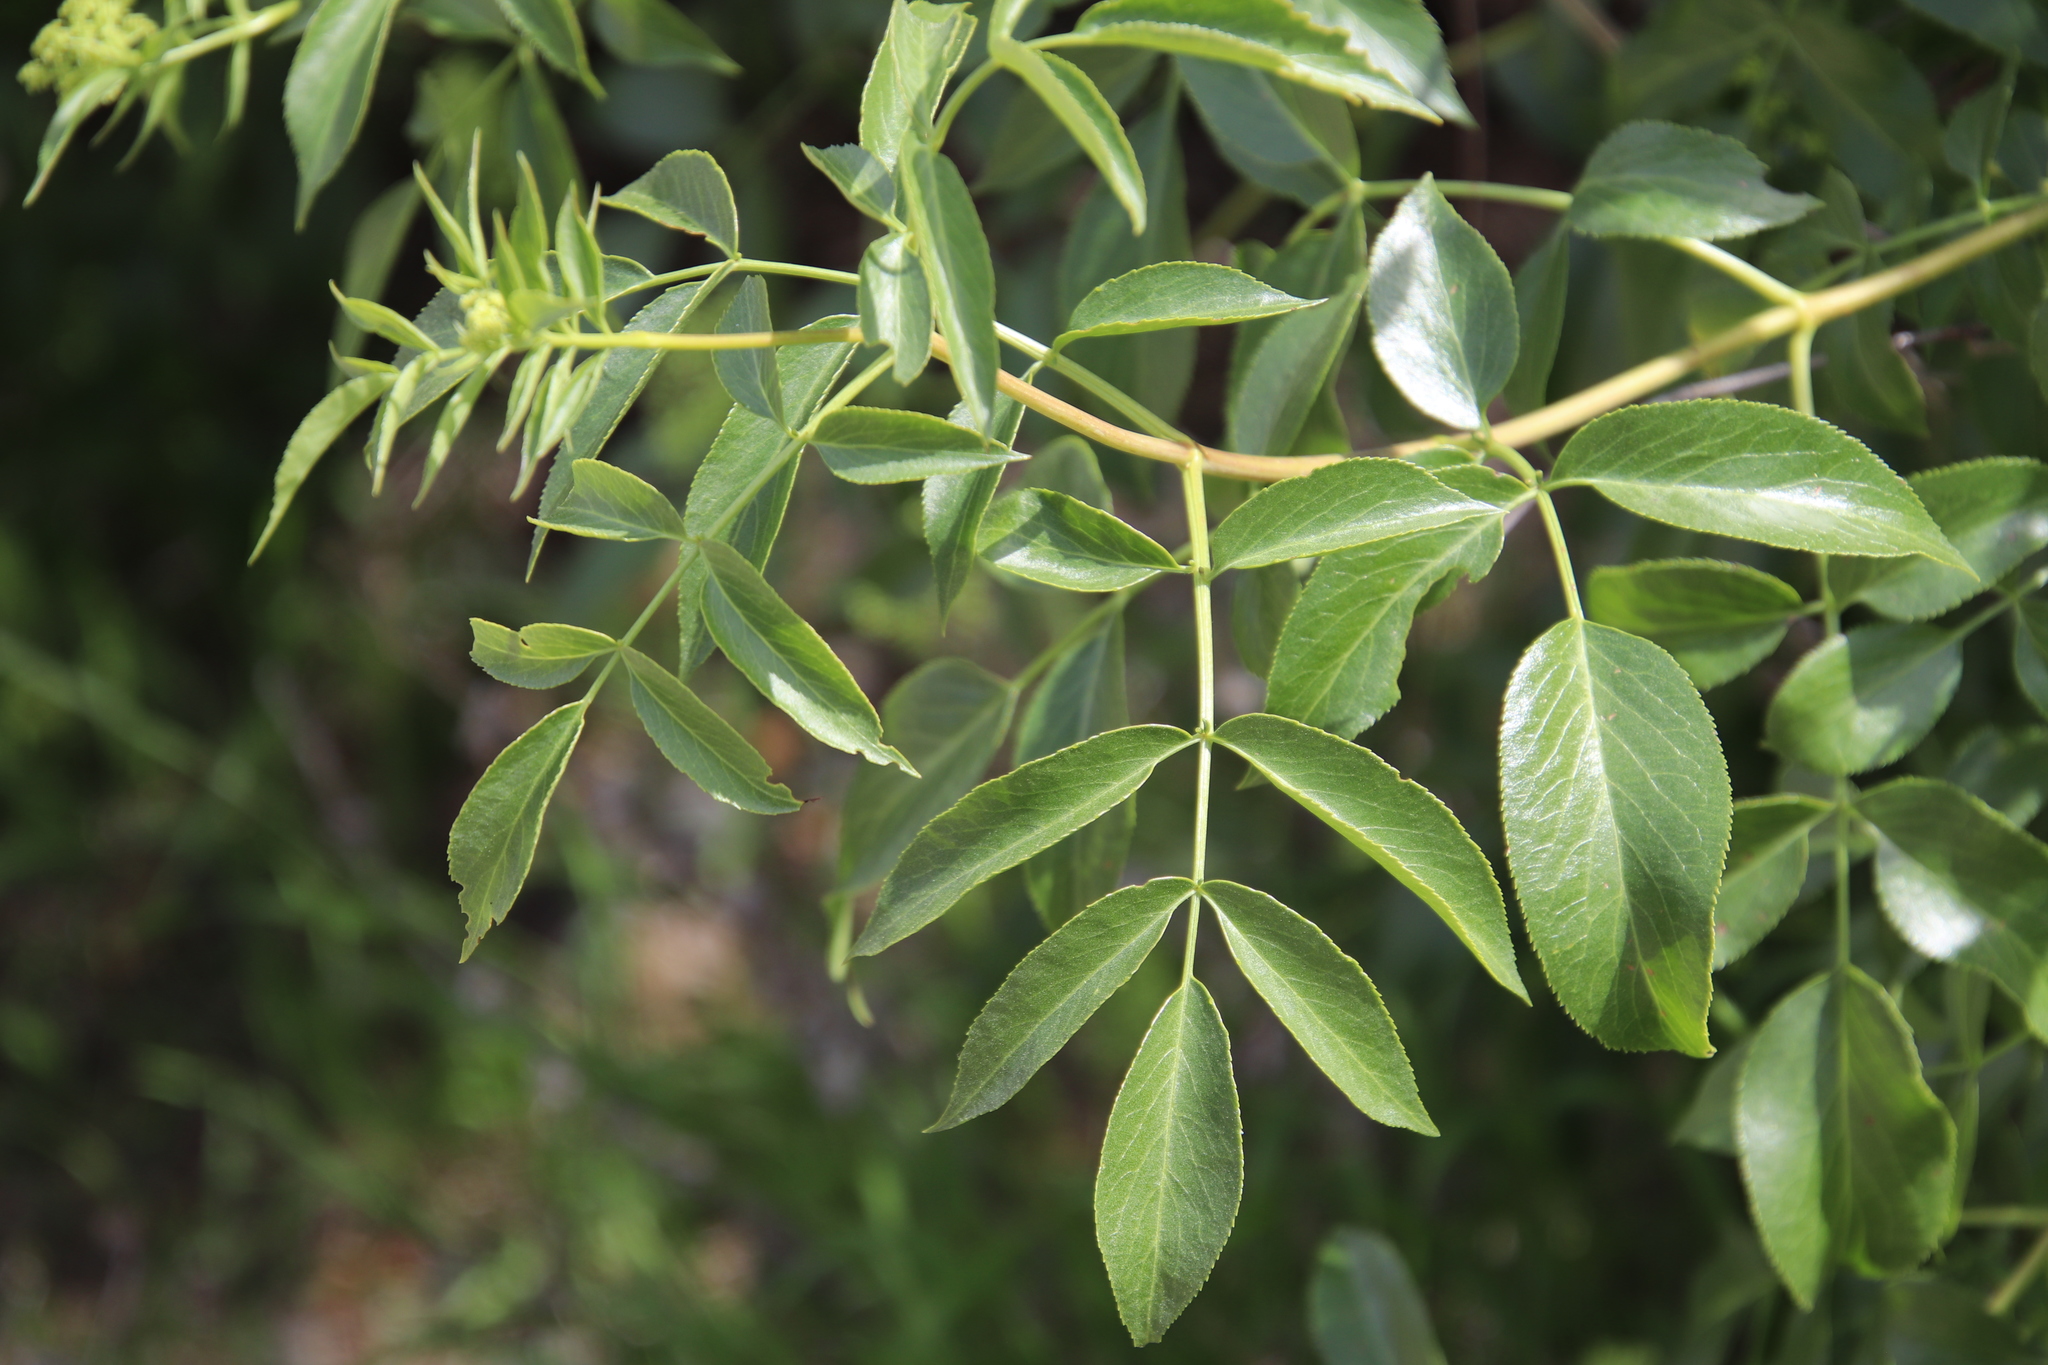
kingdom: Plantae
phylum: Tracheophyta
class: Magnoliopsida
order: Dipsacales
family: Viburnaceae
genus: Sambucus
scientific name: Sambucus cerulea
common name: Blue elder
